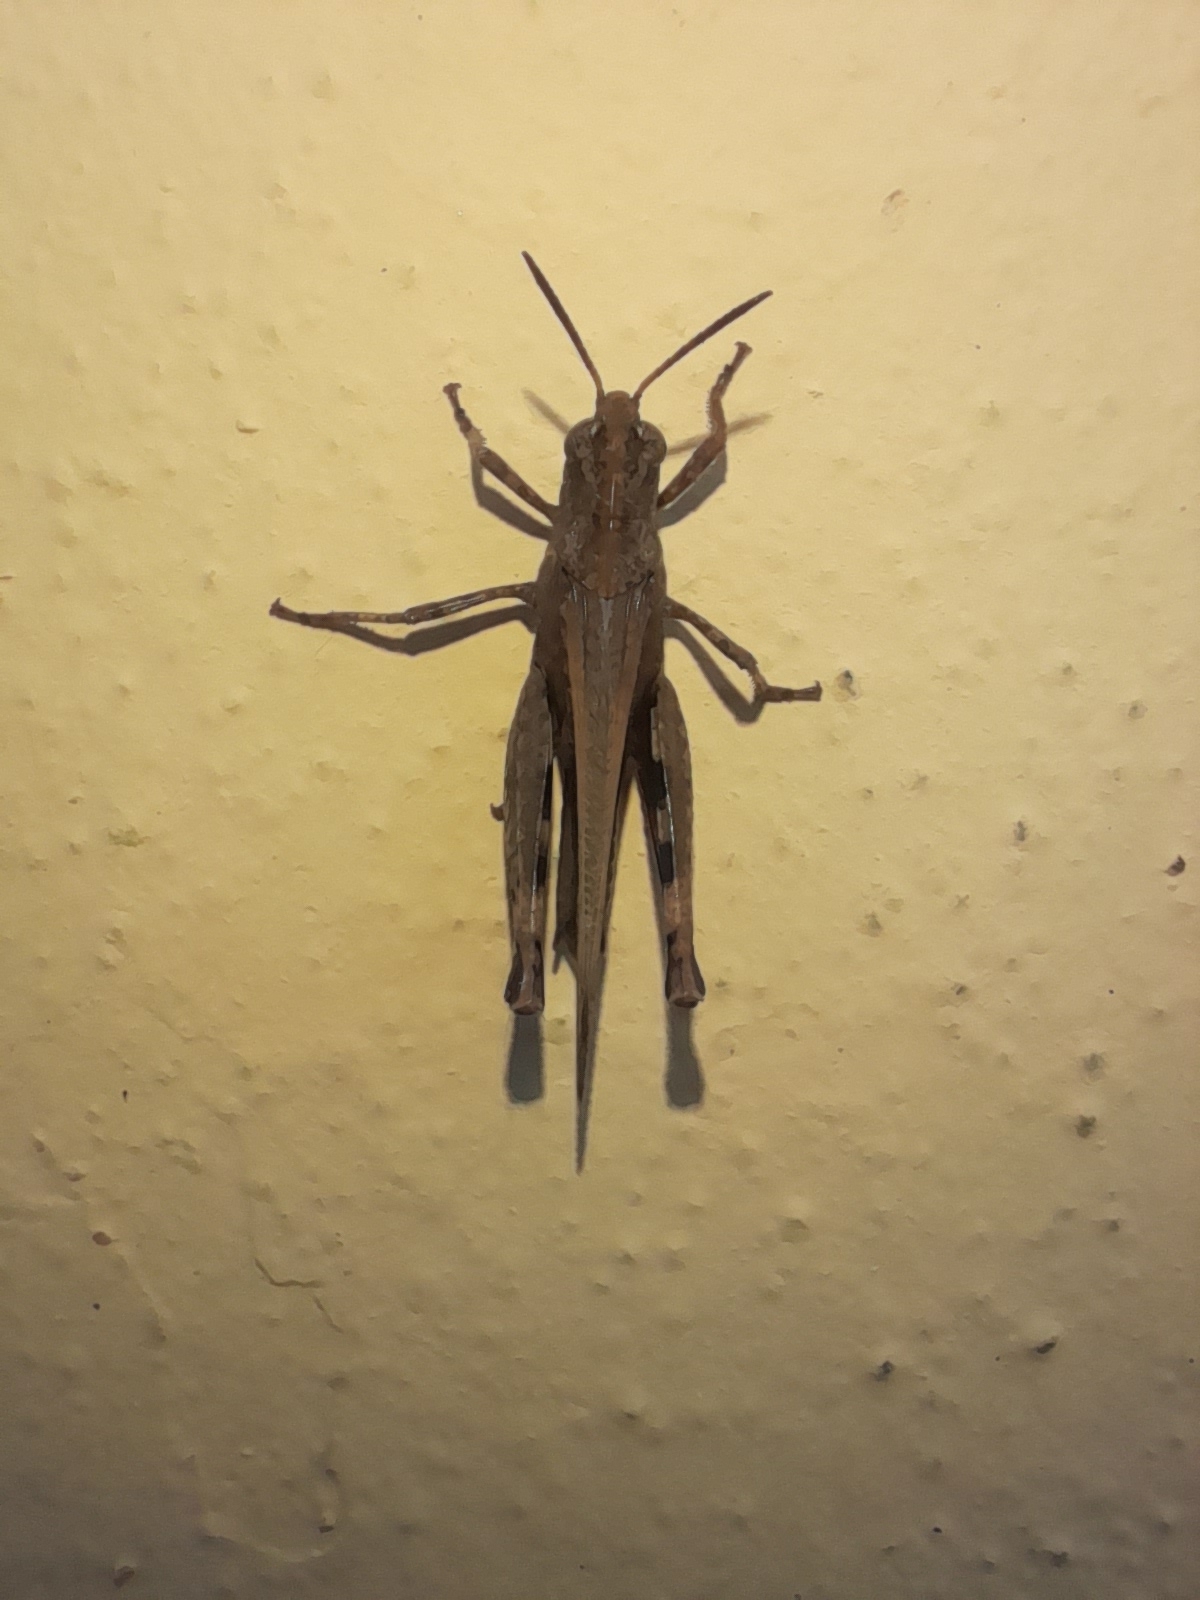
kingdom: Animalia
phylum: Arthropoda
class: Insecta
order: Orthoptera
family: Acrididae
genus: Aiolopus
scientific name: Aiolopus strepens
